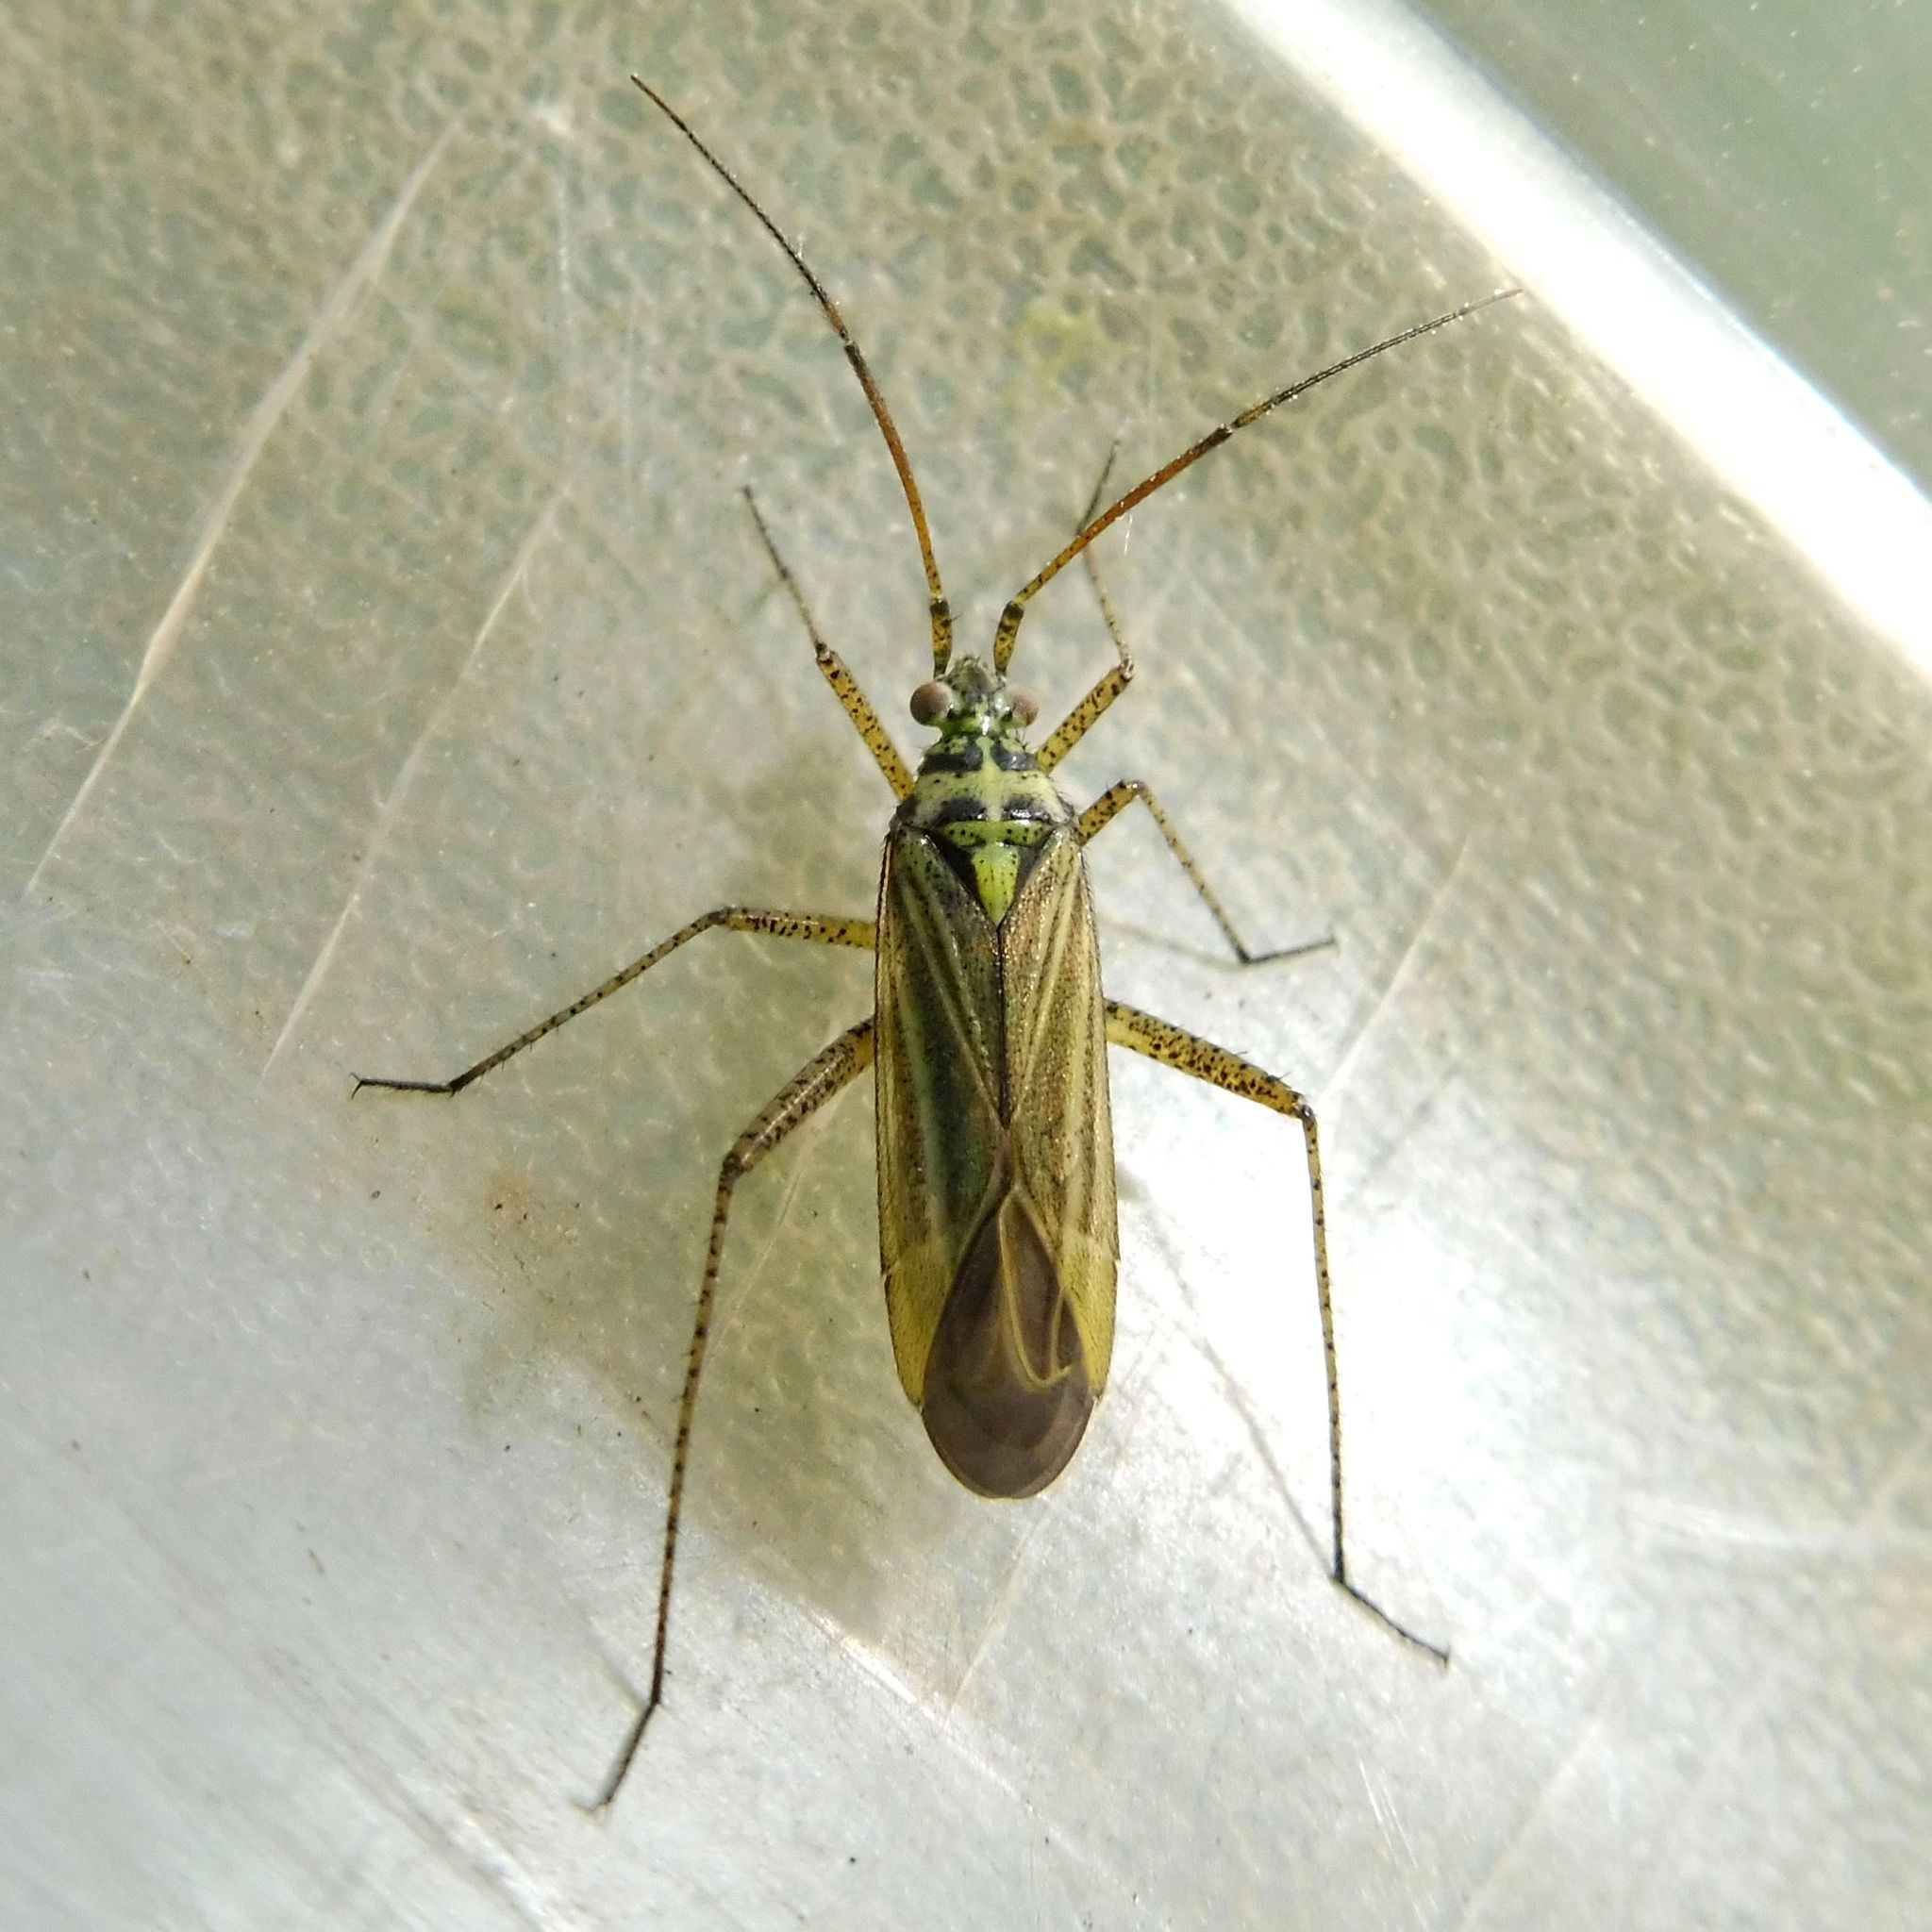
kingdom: Animalia
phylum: Arthropoda
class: Insecta
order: Hemiptera
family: Miridae
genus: Oncotylus
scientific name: Oncotylus viridiflavus
